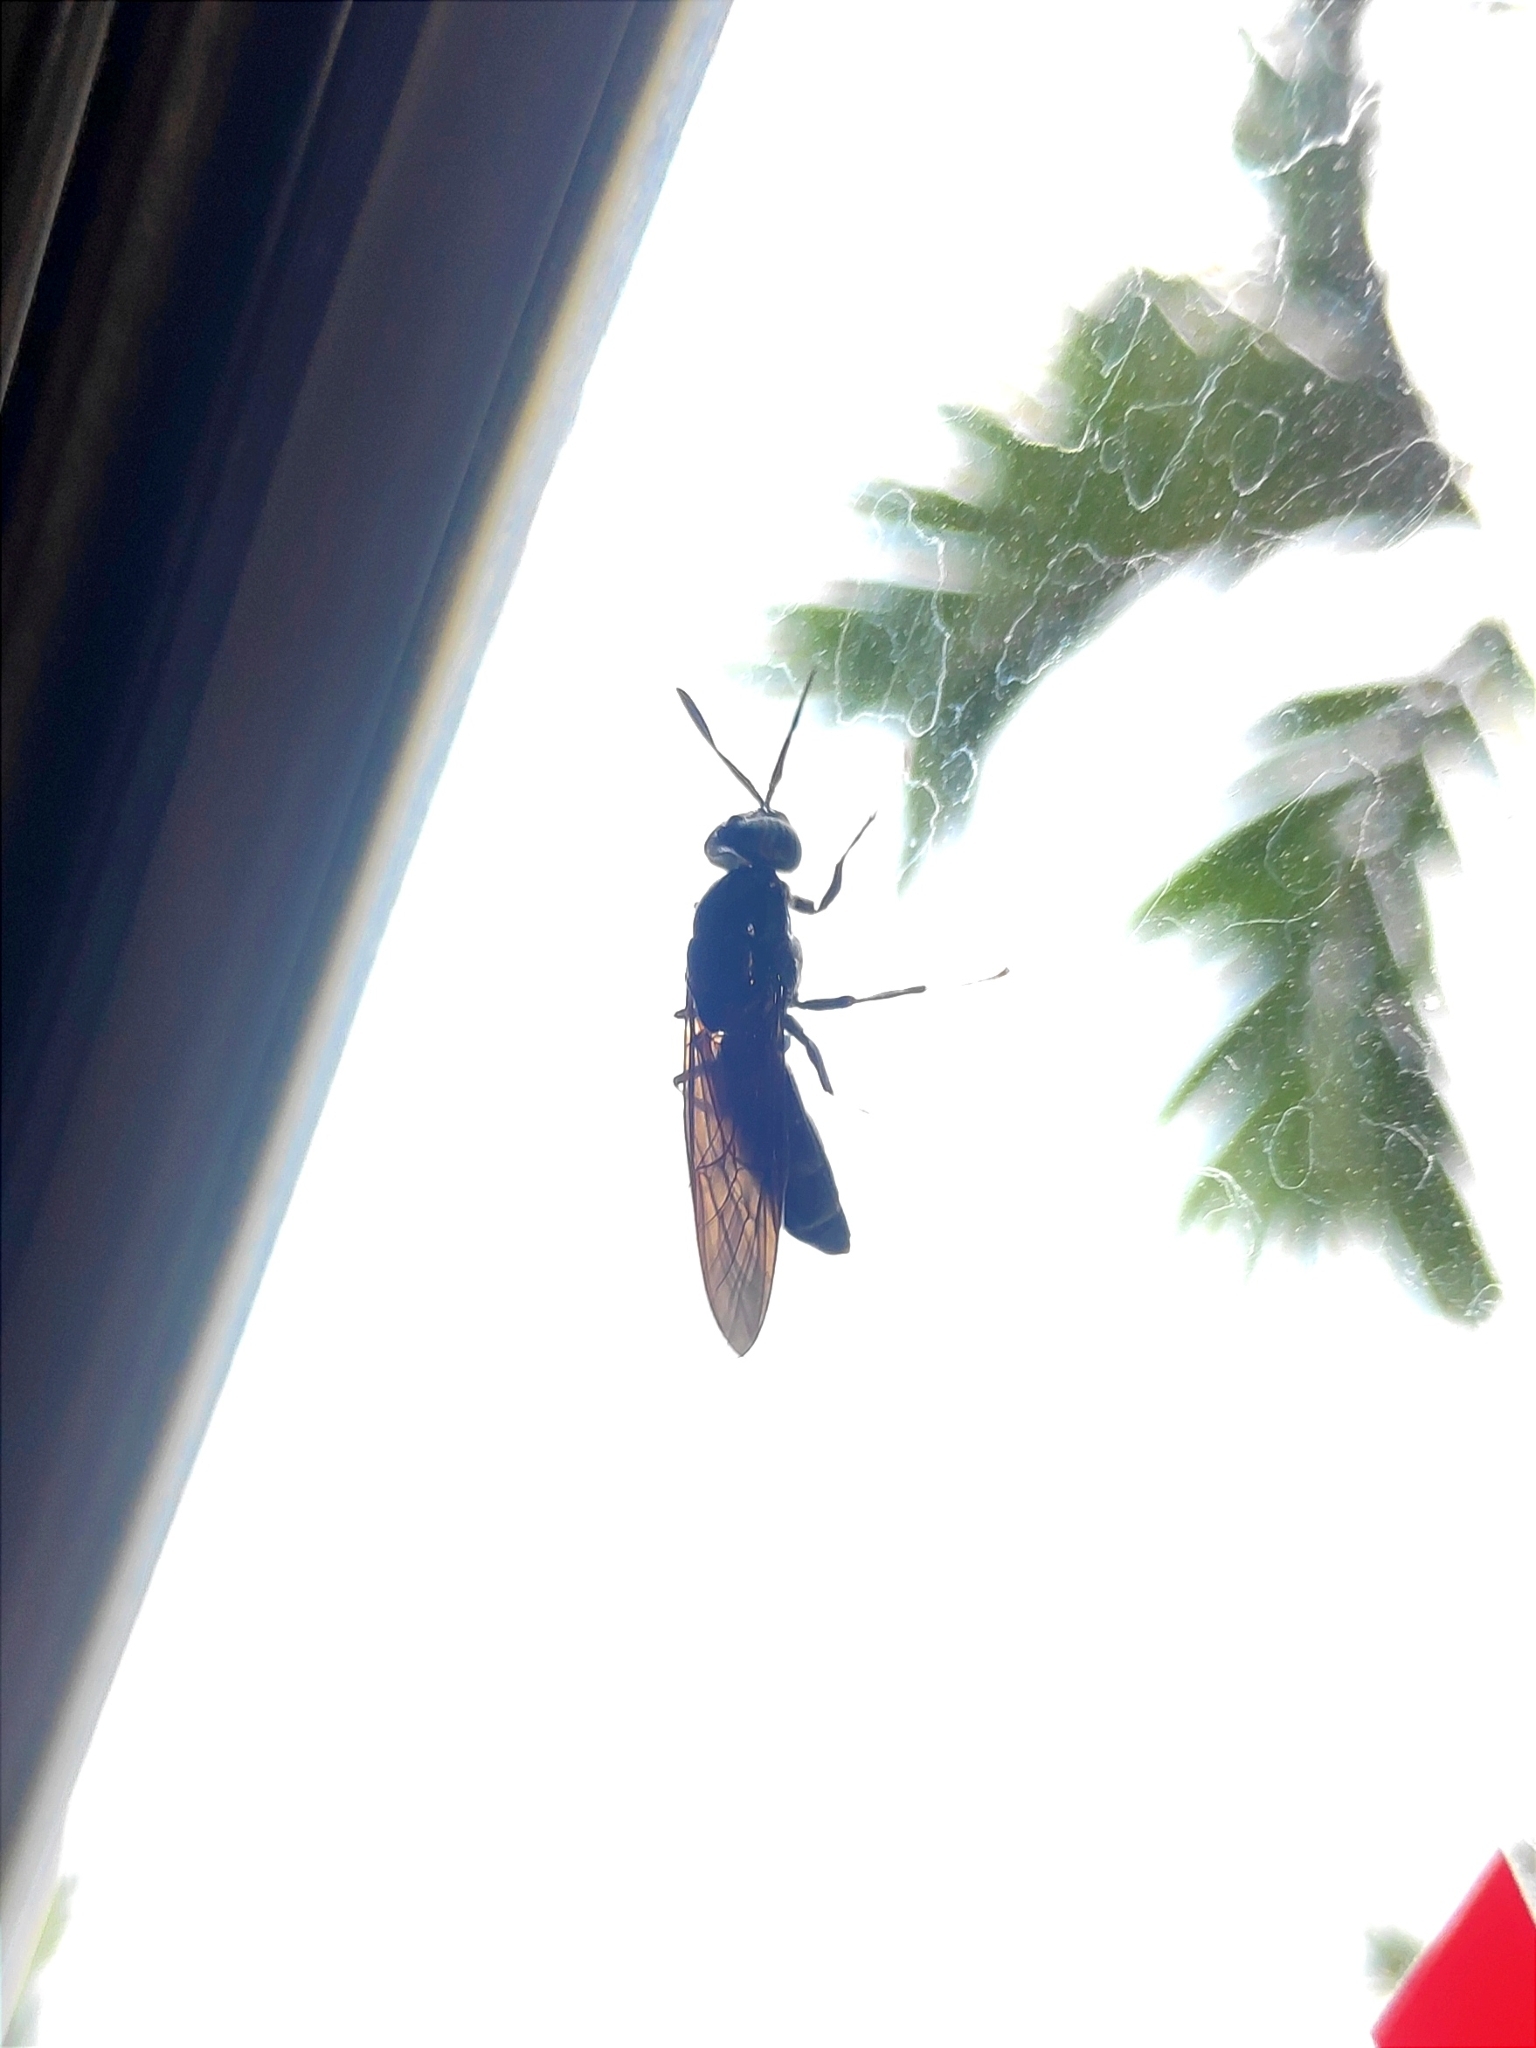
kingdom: Animalia
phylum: Arthropoda
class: Insecta
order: Diptera
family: Stratiomyidae
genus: Hermetia
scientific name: Hermetia illucens
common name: Black soldier fly
